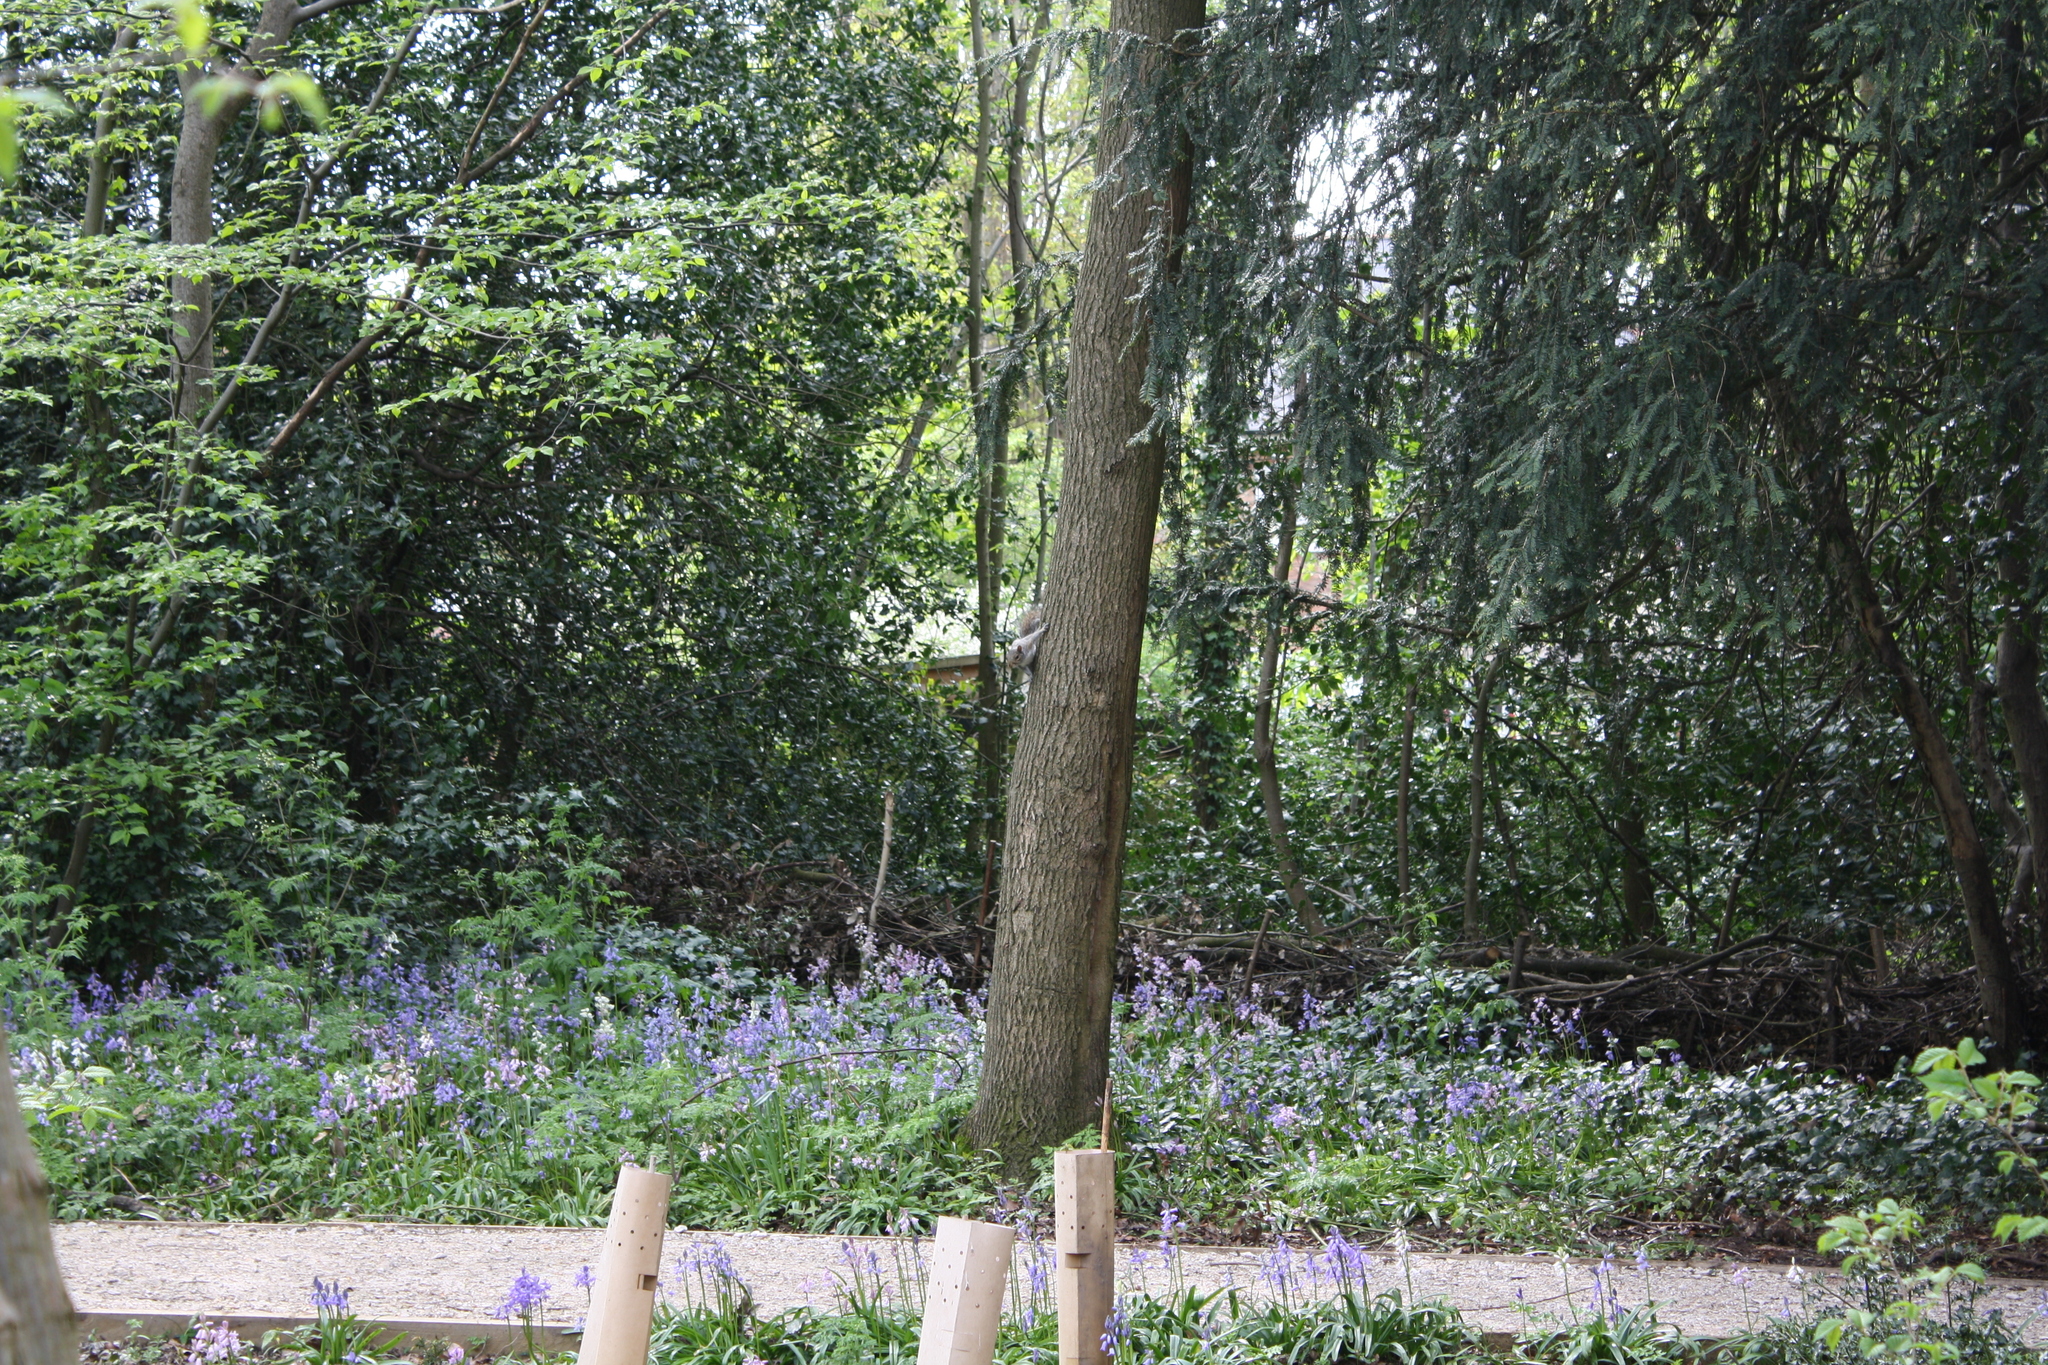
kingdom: Animalia
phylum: Chordata
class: Mammalia
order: Rodentia
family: Sciuridae
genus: Sciurus
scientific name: Sciurus carolinensis
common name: Eastern gray squirrel
